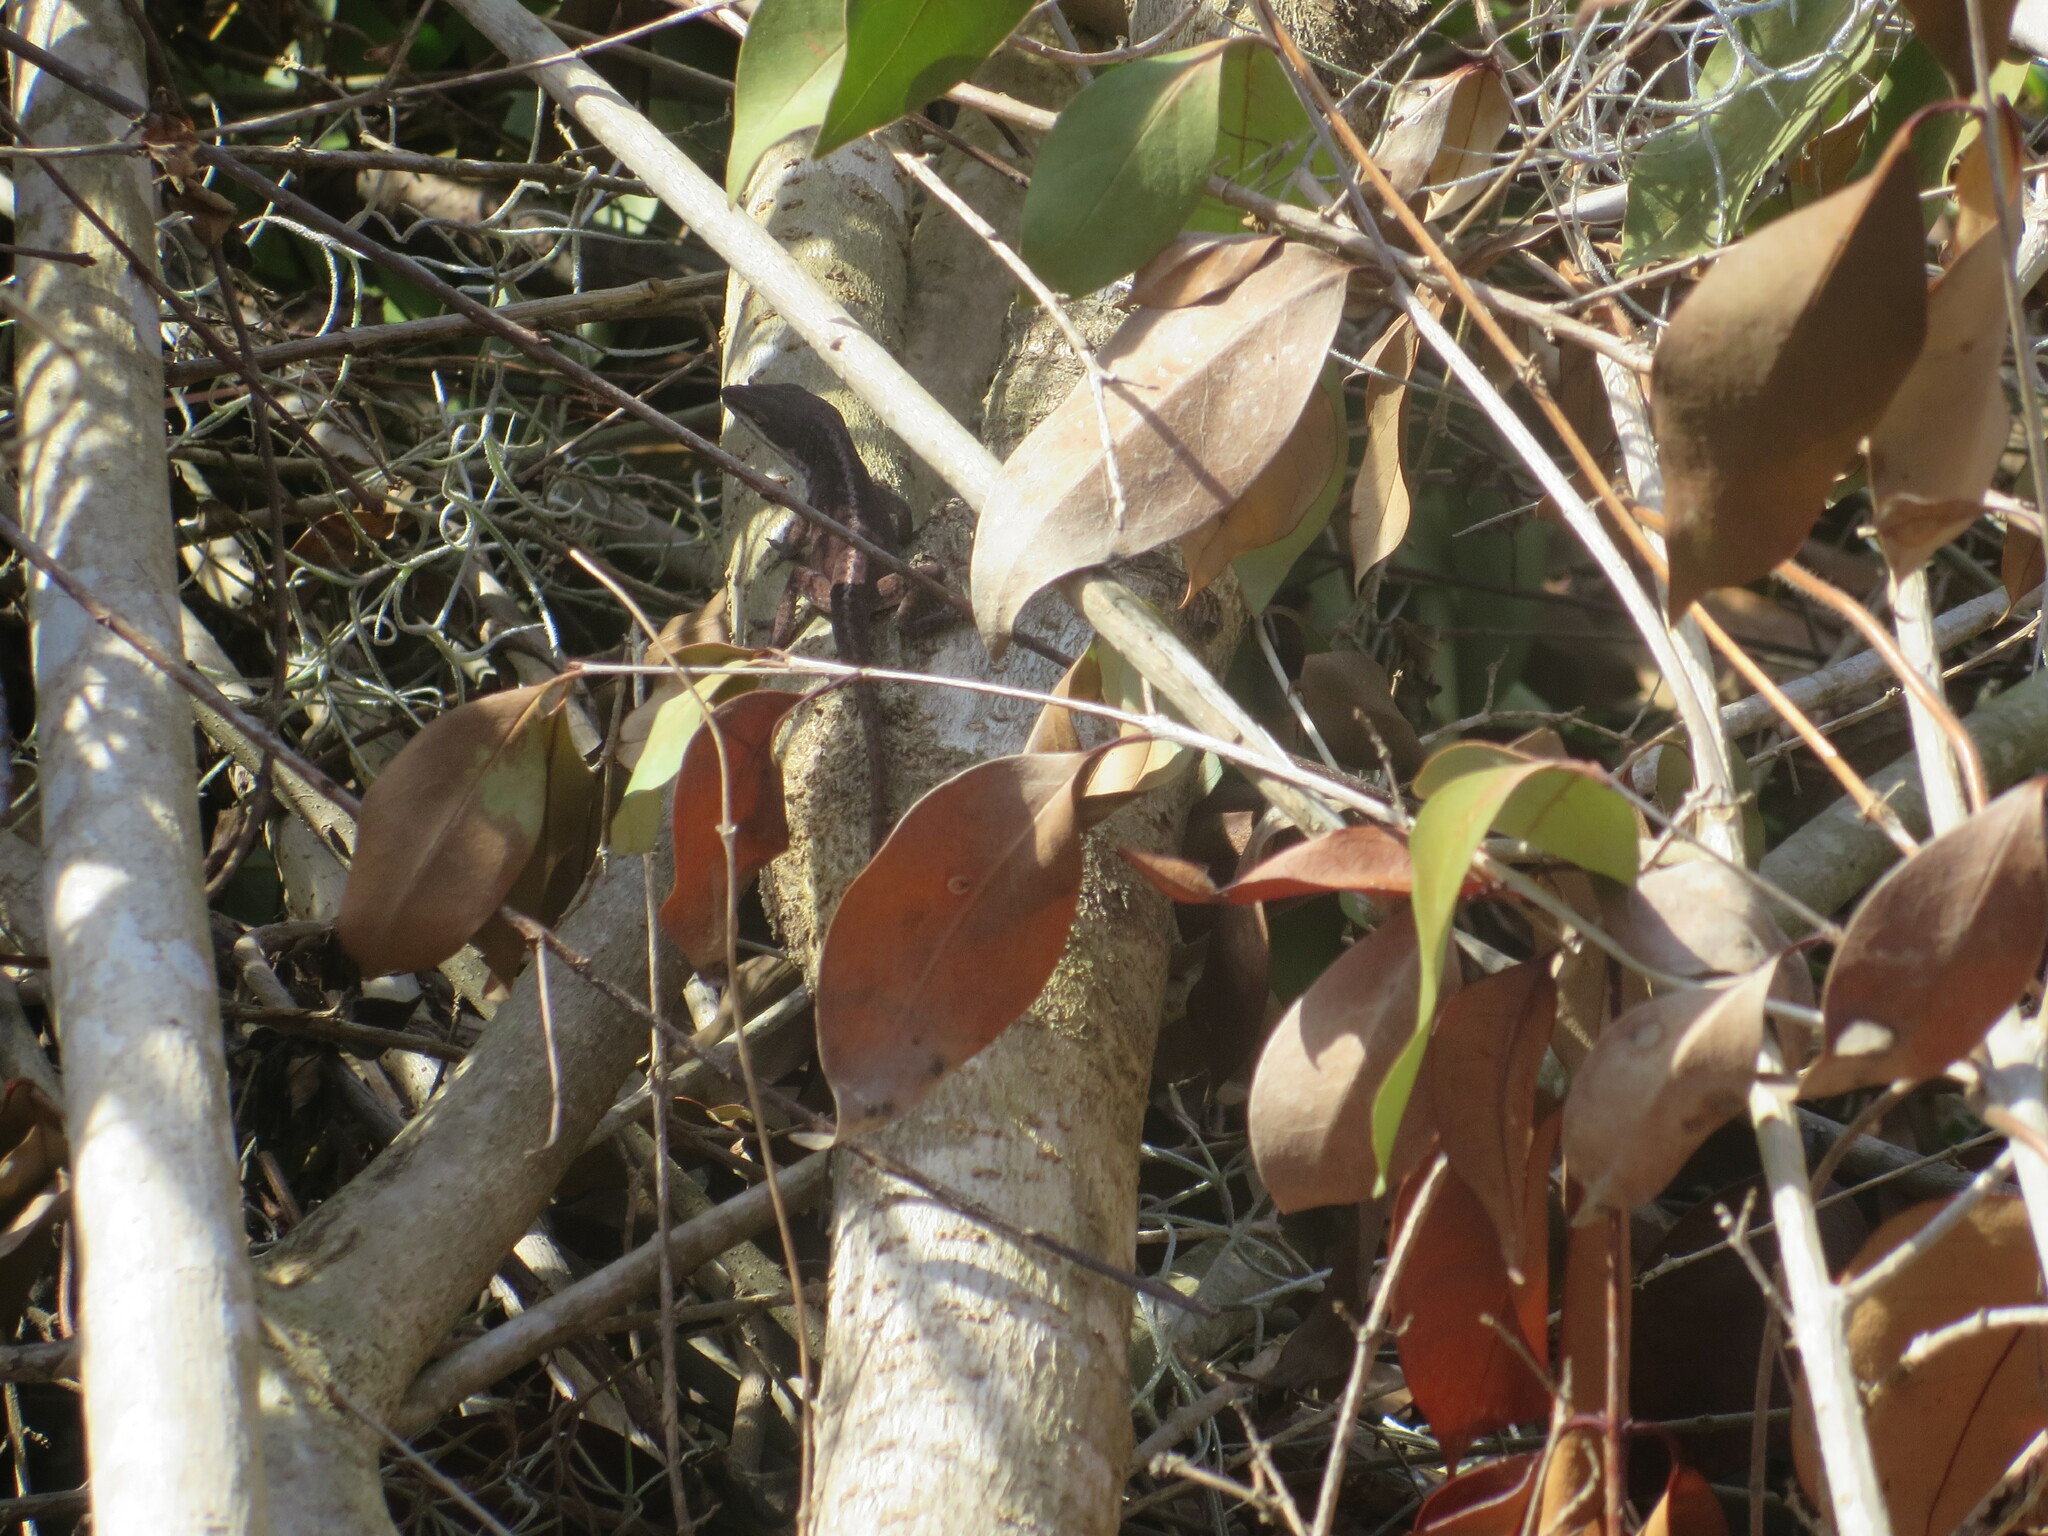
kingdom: Animalia
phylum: Chordata
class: Squamata
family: Dactyloidae
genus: Anolis
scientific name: Anolis carolinensis
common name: Green anole
